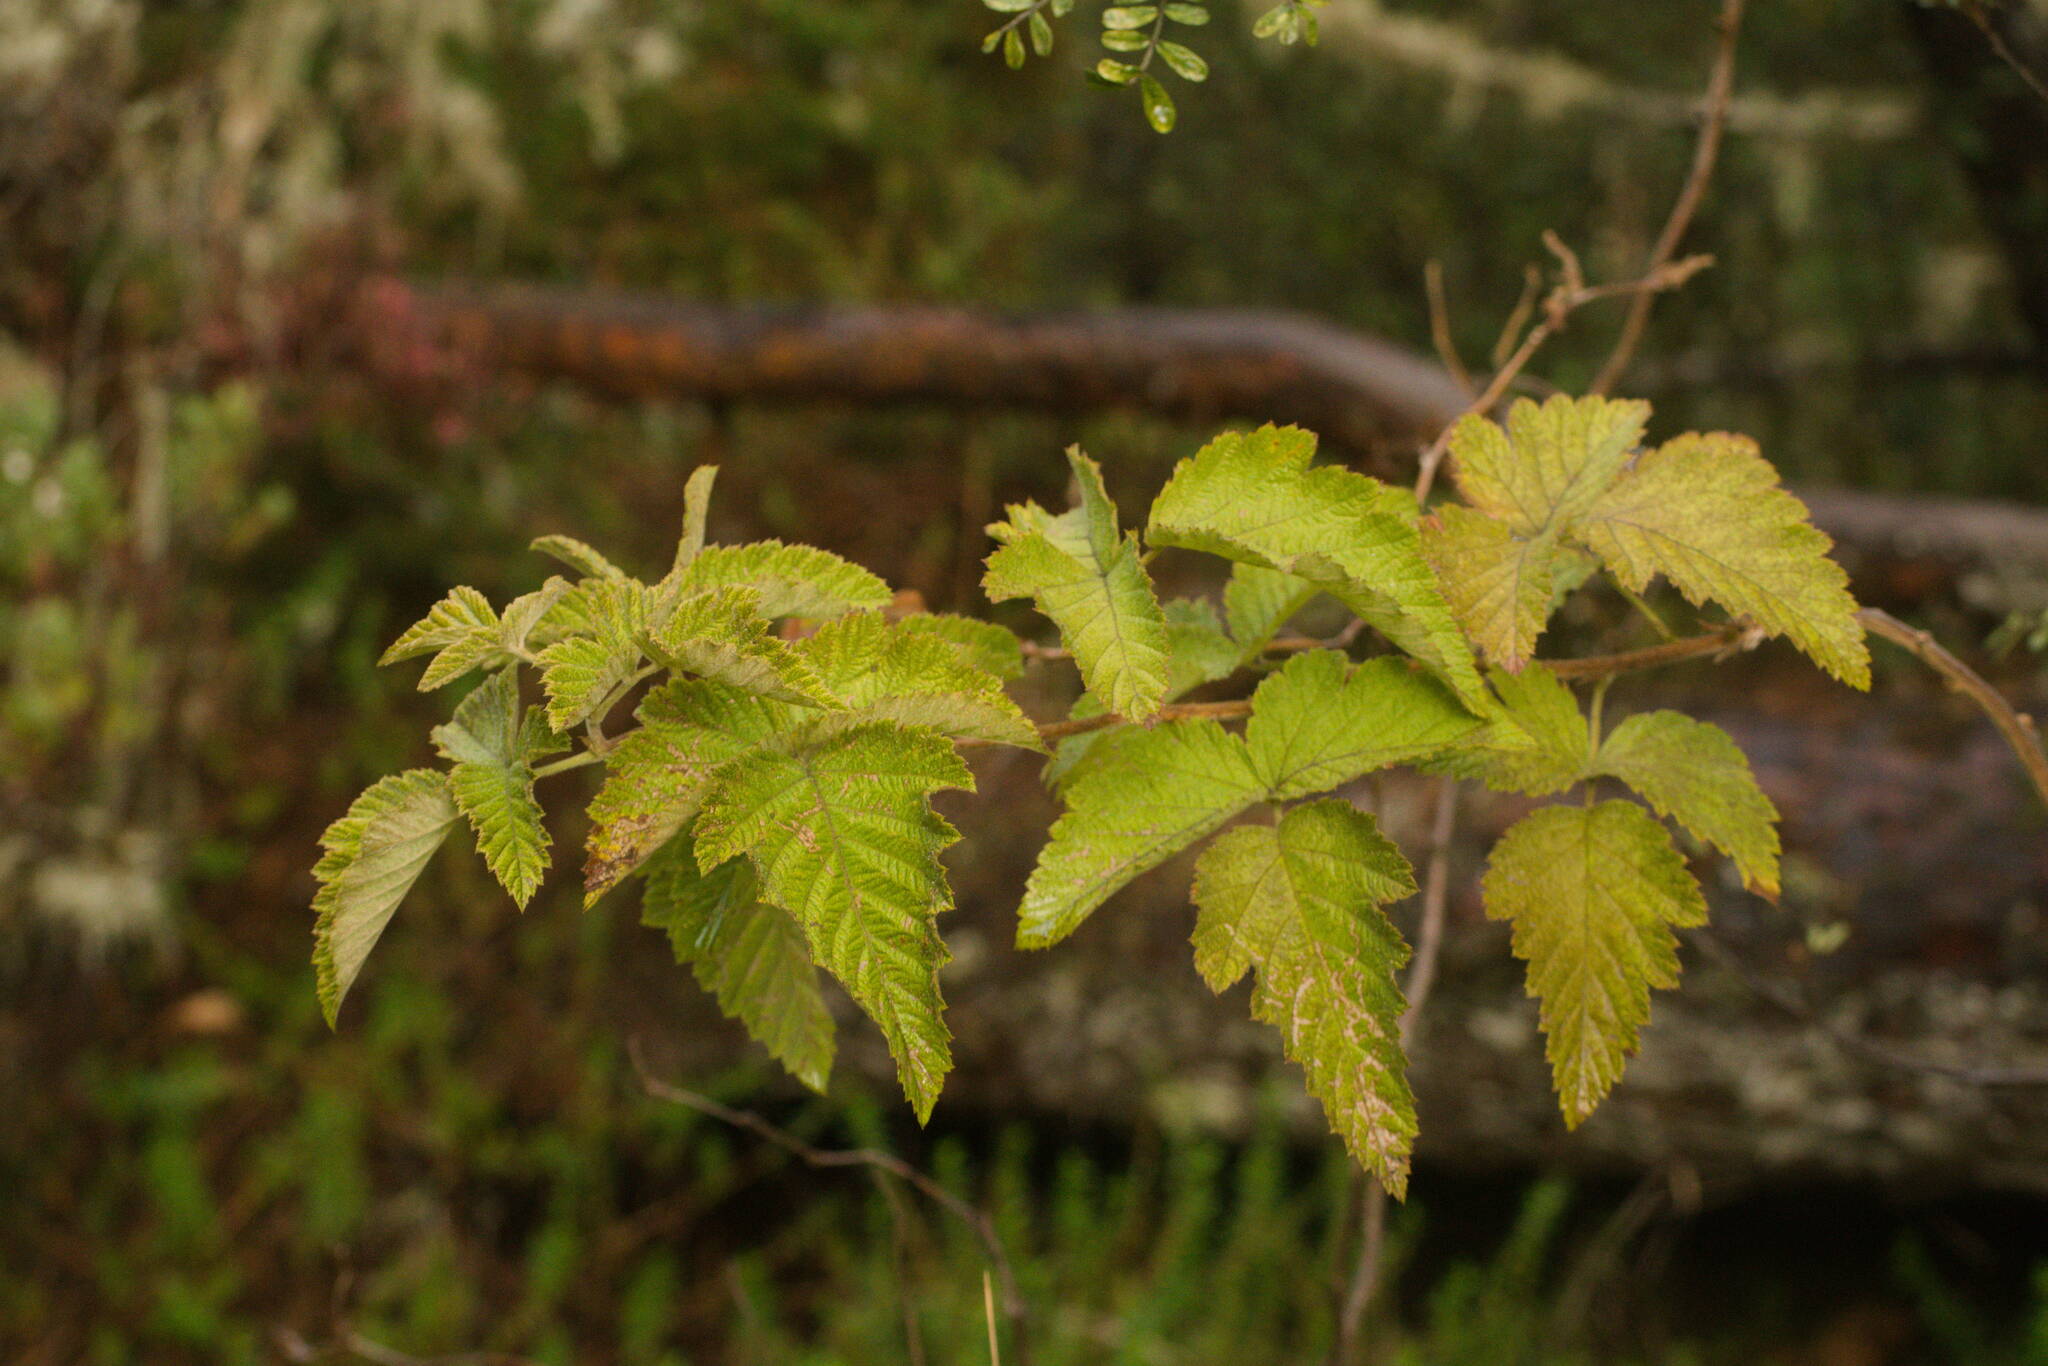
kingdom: Plantae
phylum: Tracheophyta
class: Magnoliopsida
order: Rosales
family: Rosaceae
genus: Rubus
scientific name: Rubus hawaiensis
